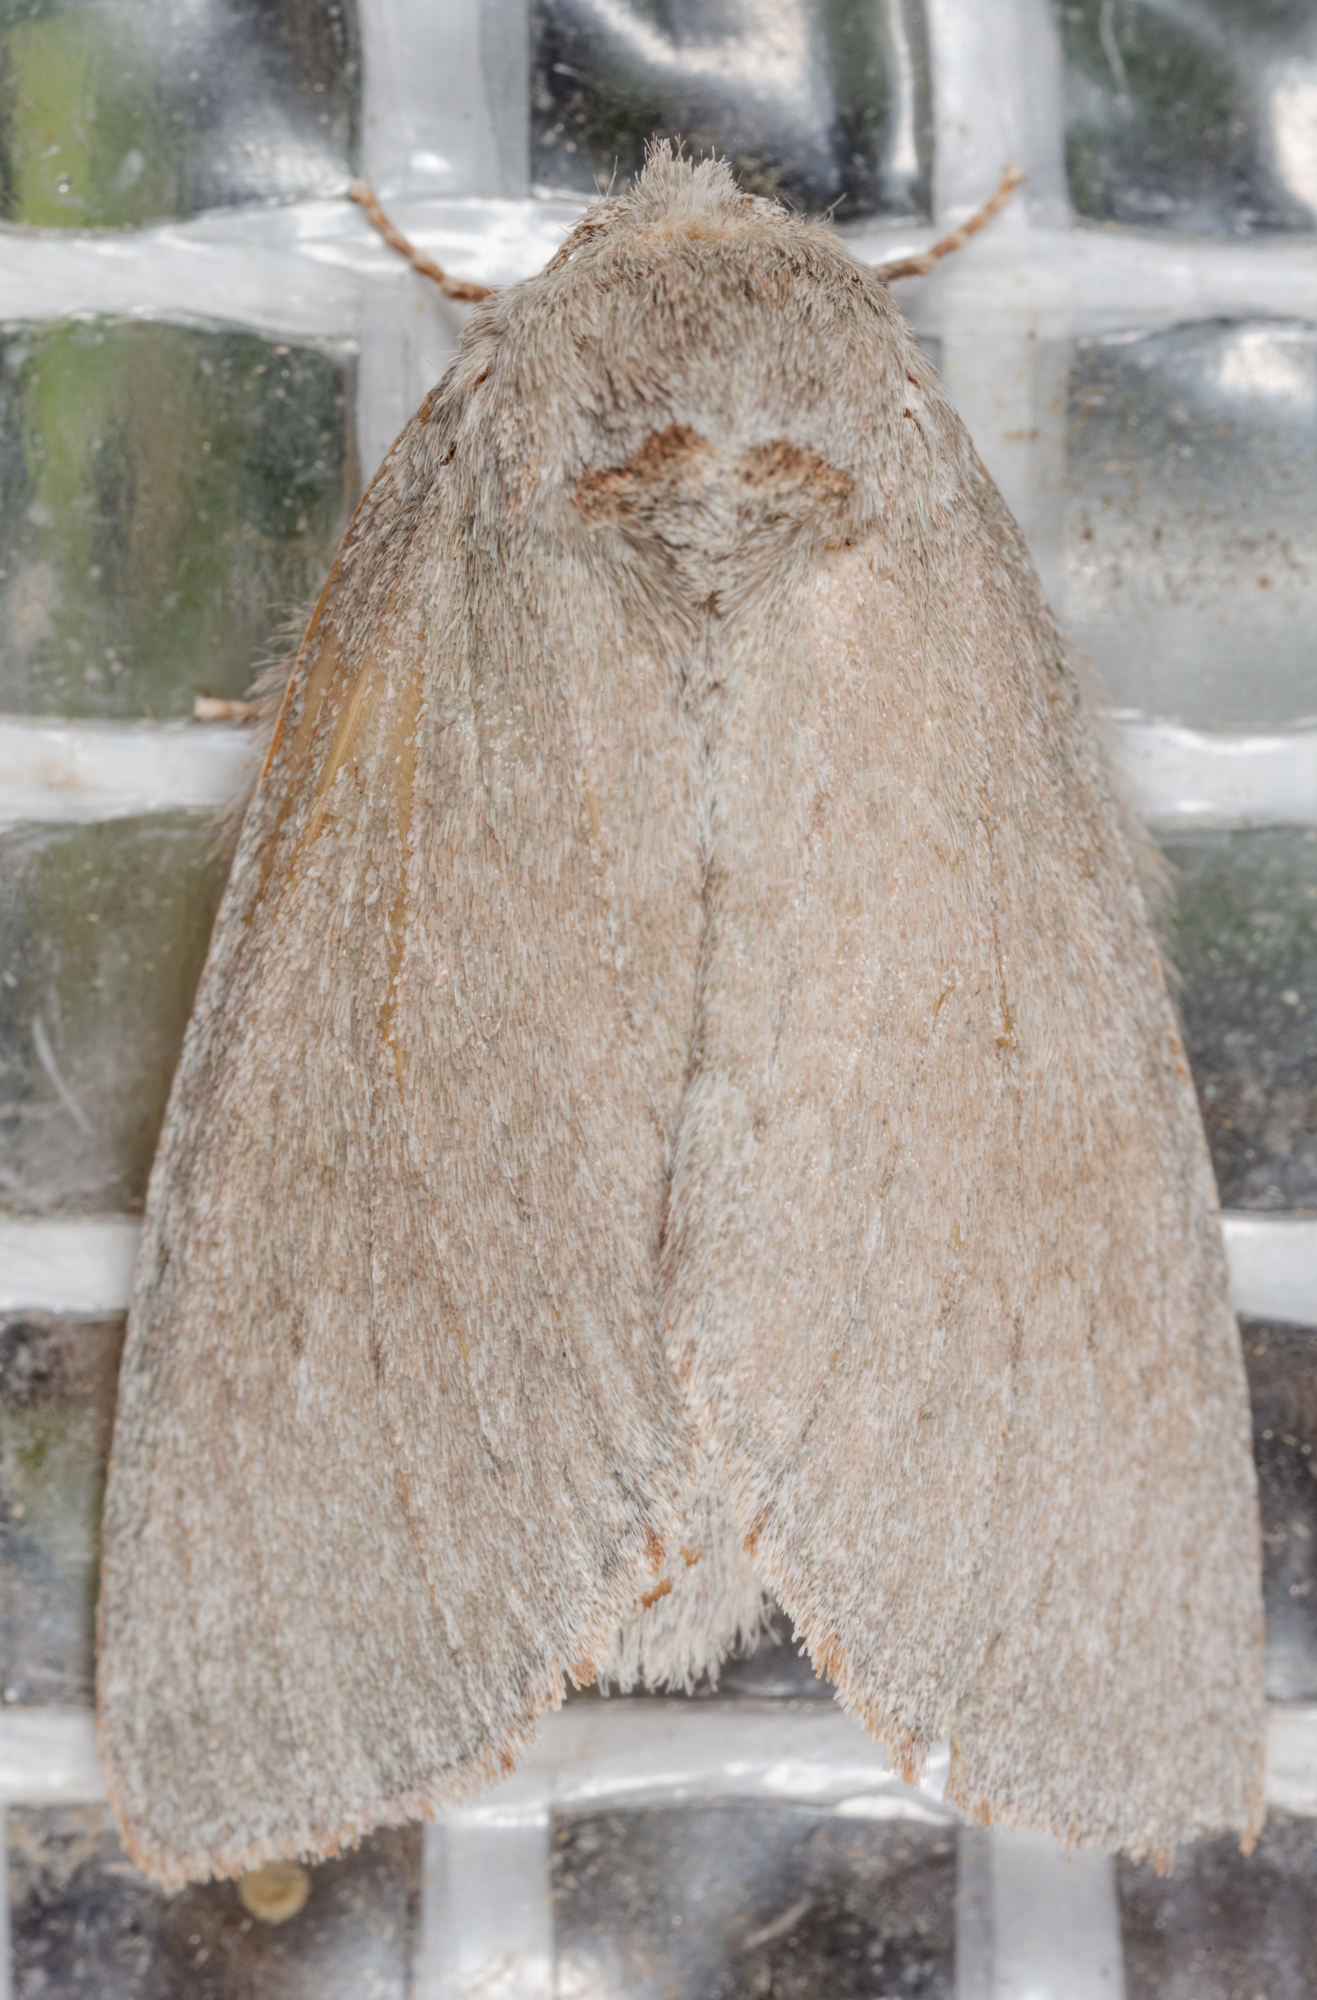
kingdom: Animalia
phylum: Arthropoda
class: Insecta
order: Lepidoptera
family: Notodontidae
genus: Misogada
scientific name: Misogada unicolor
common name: Drab prominent
